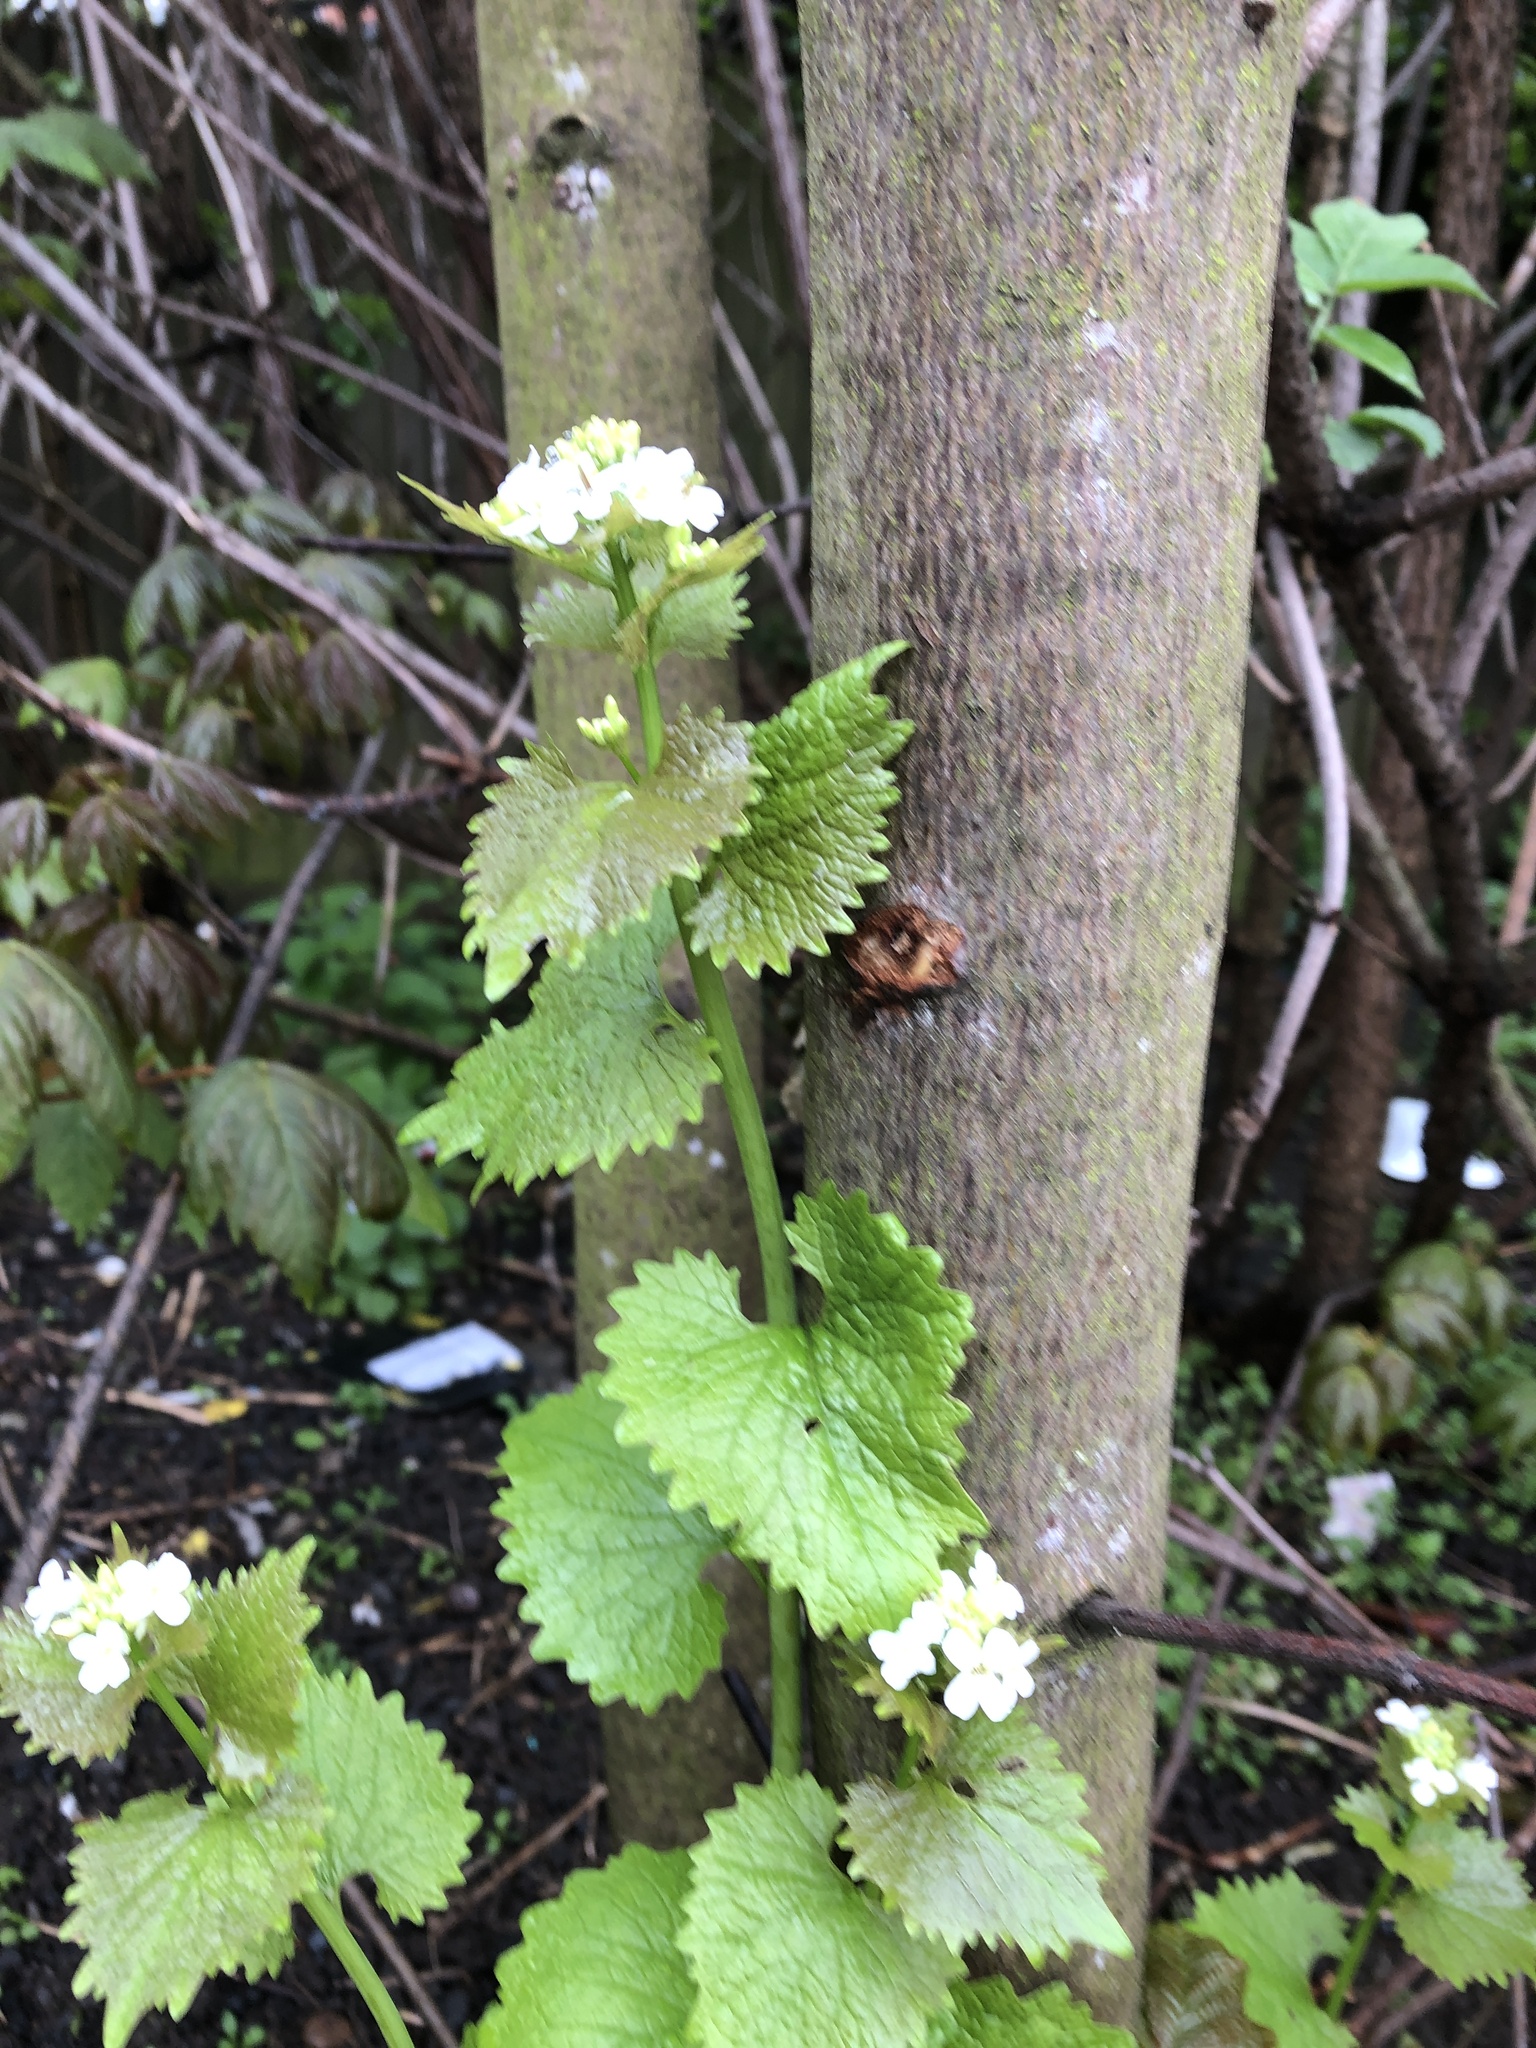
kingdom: Plantae
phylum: Tracheophyta
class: Magnoliopsida
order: Brassicales
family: Brassicaceae
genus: Alliaria
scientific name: Alliaria petiolata
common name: Garlic mustard
